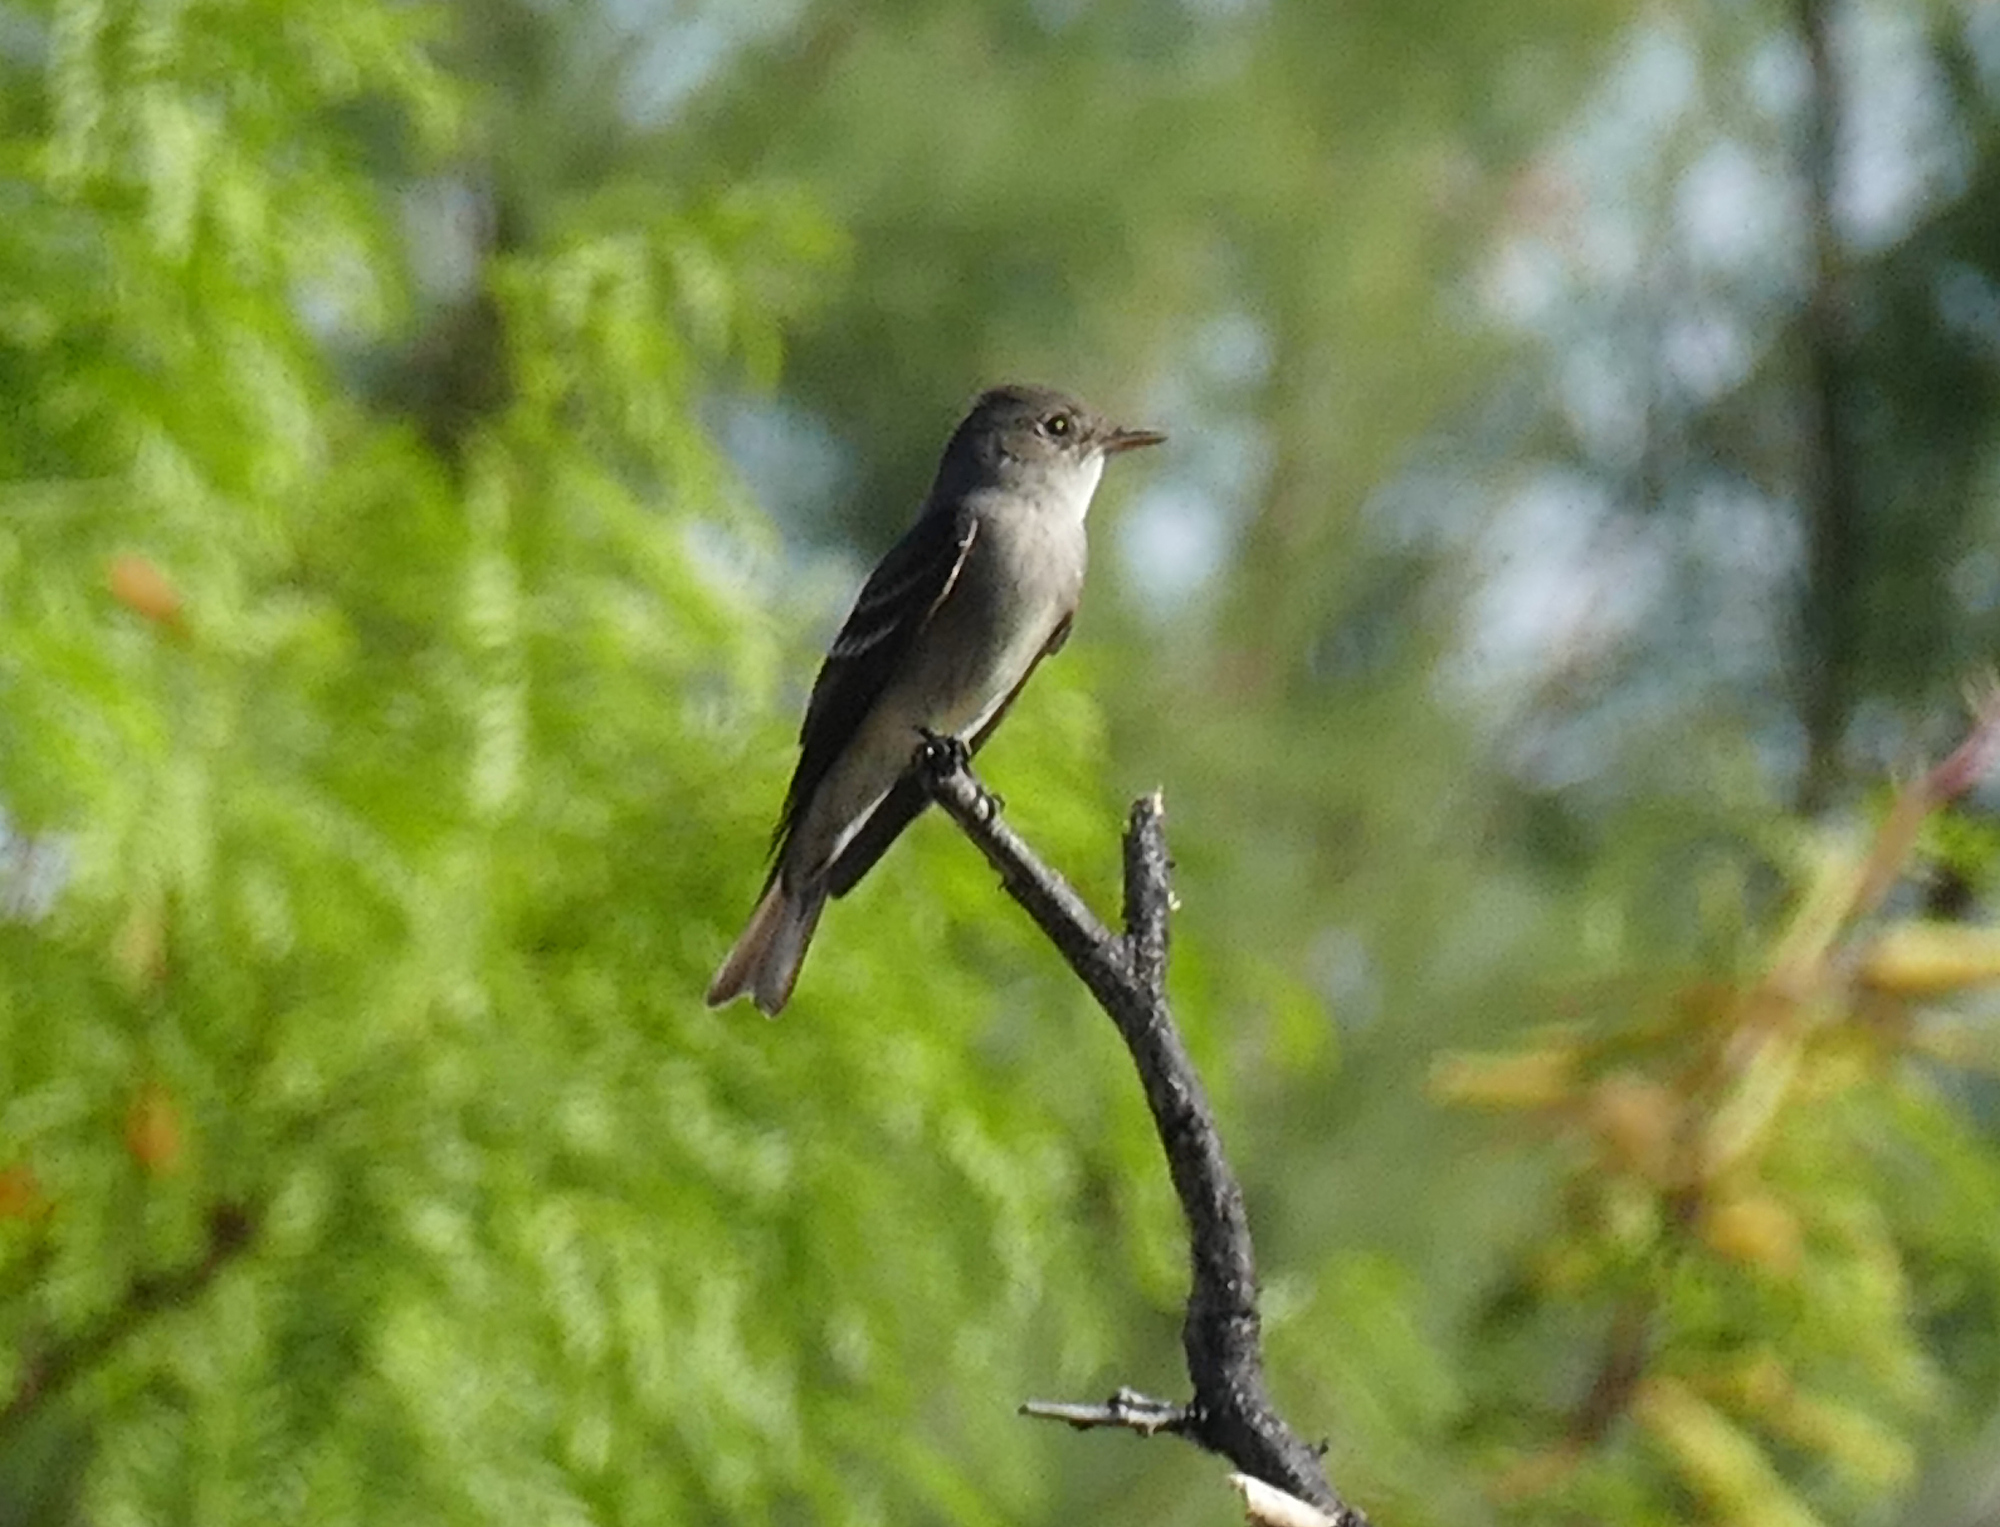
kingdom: Animalia
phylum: Chordata
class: Aves
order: Passeriformes
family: Tyrannidae
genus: Contopus
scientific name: Contopus sordidulus
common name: Western wood-pewee
